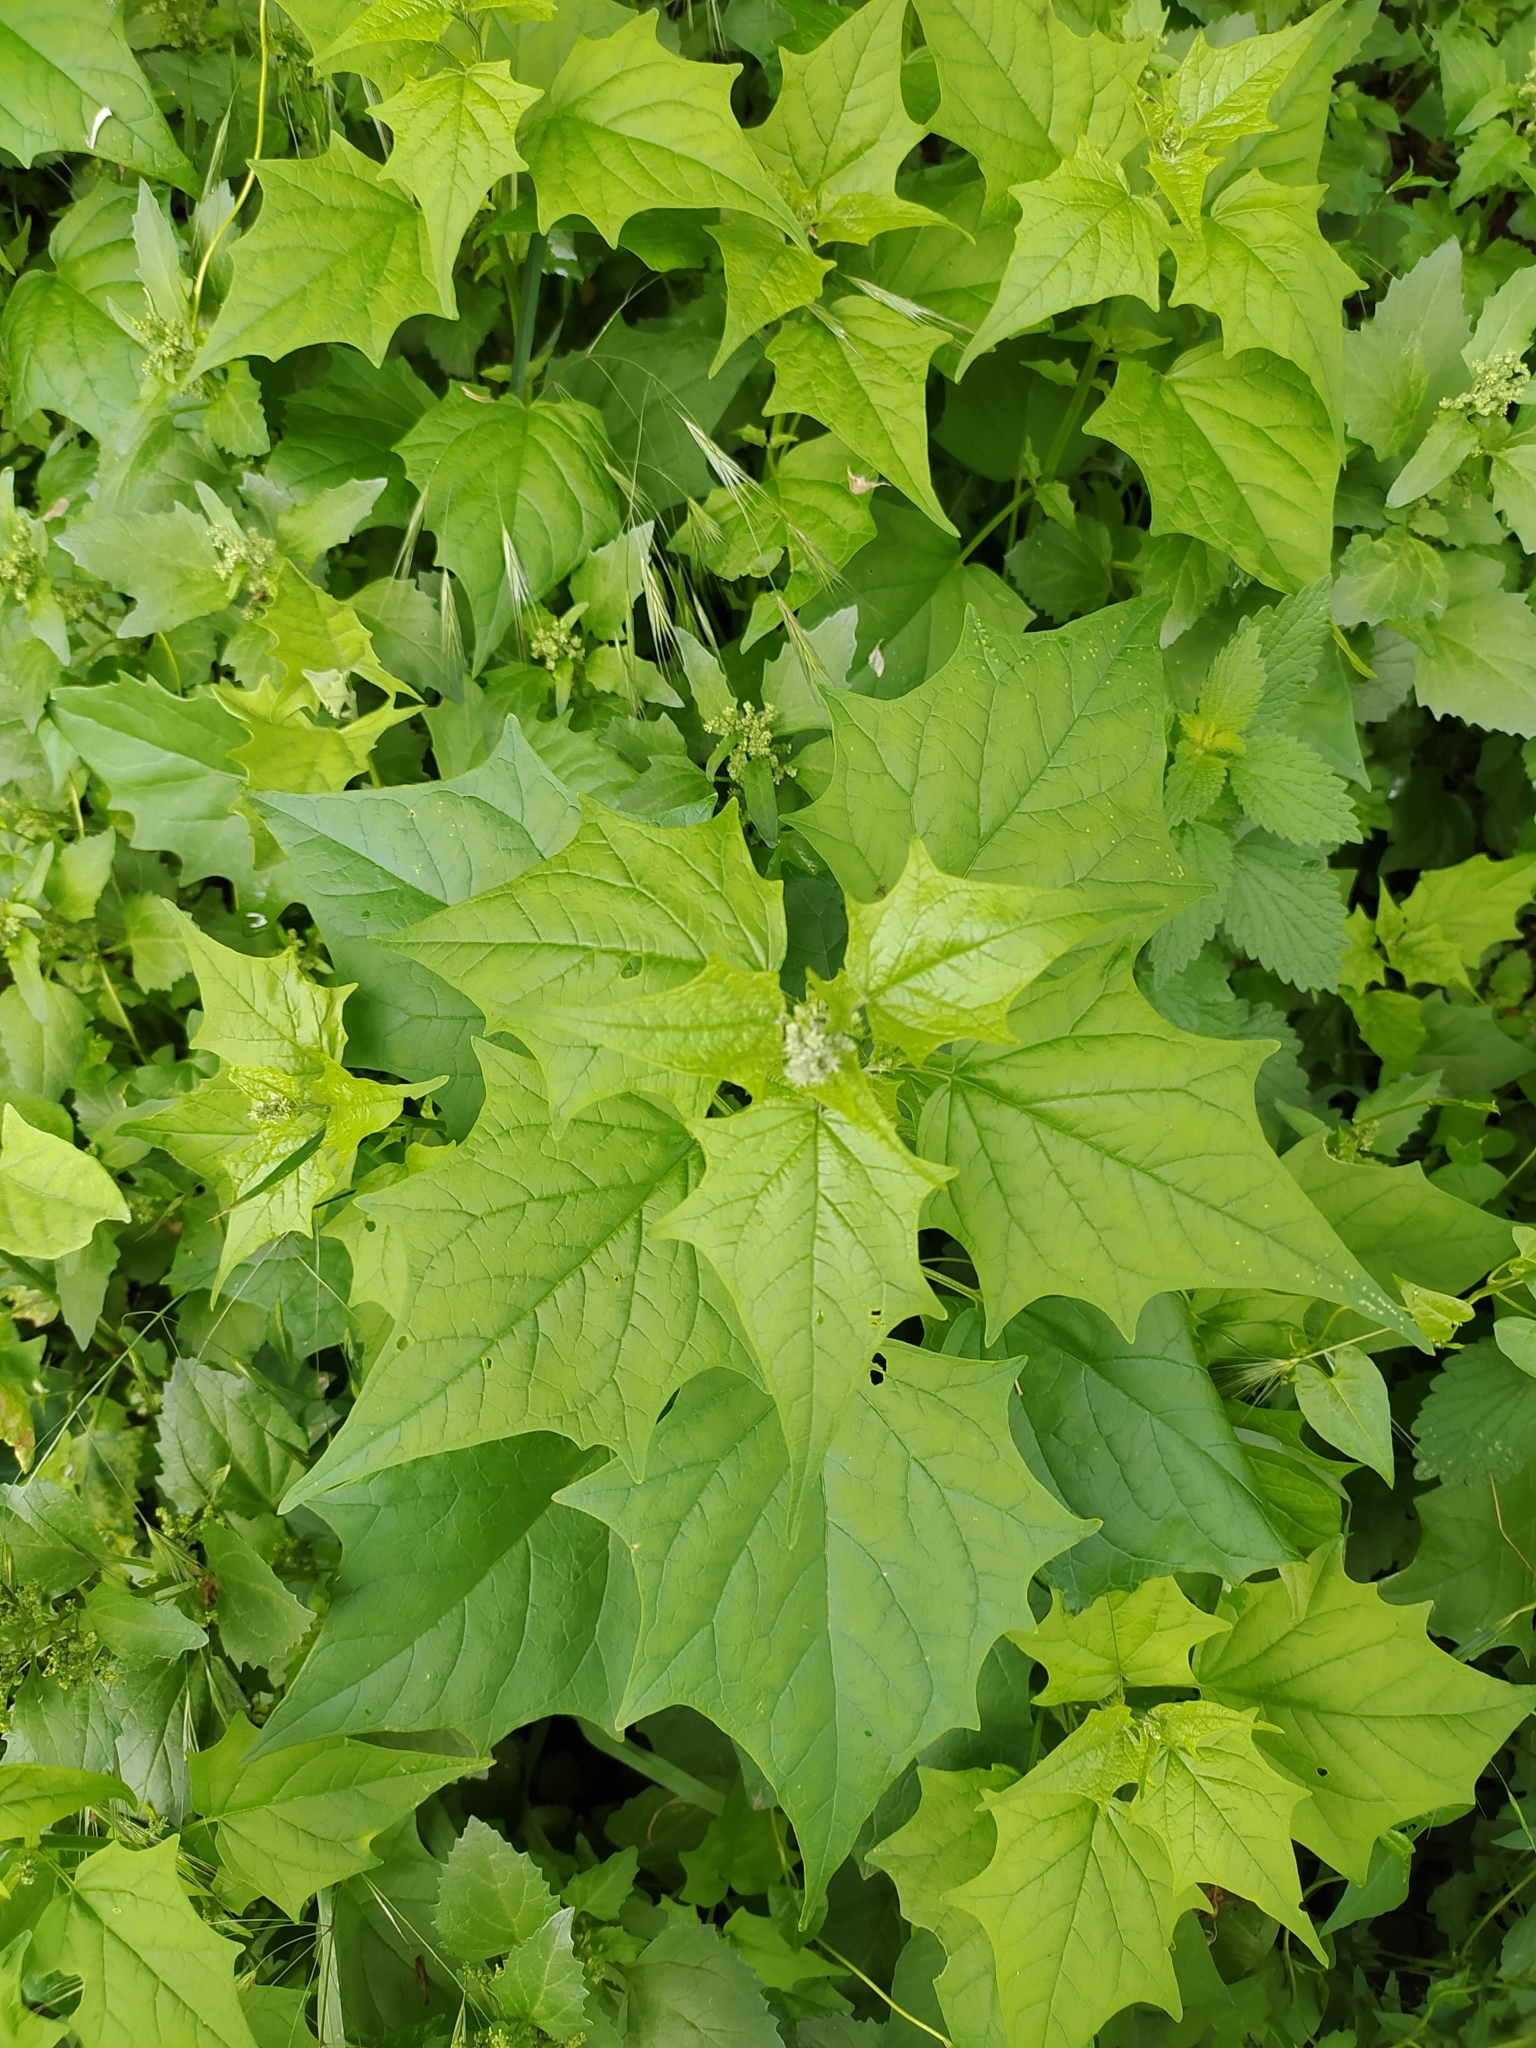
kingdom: Plantae
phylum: Tracheophyta
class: Magnoliopsida
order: Caryophyllales
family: Amaranthaceae
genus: Chenopodiastrum
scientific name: Chenopodiastrum hybridum
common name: Mapleleaf goosefoot
